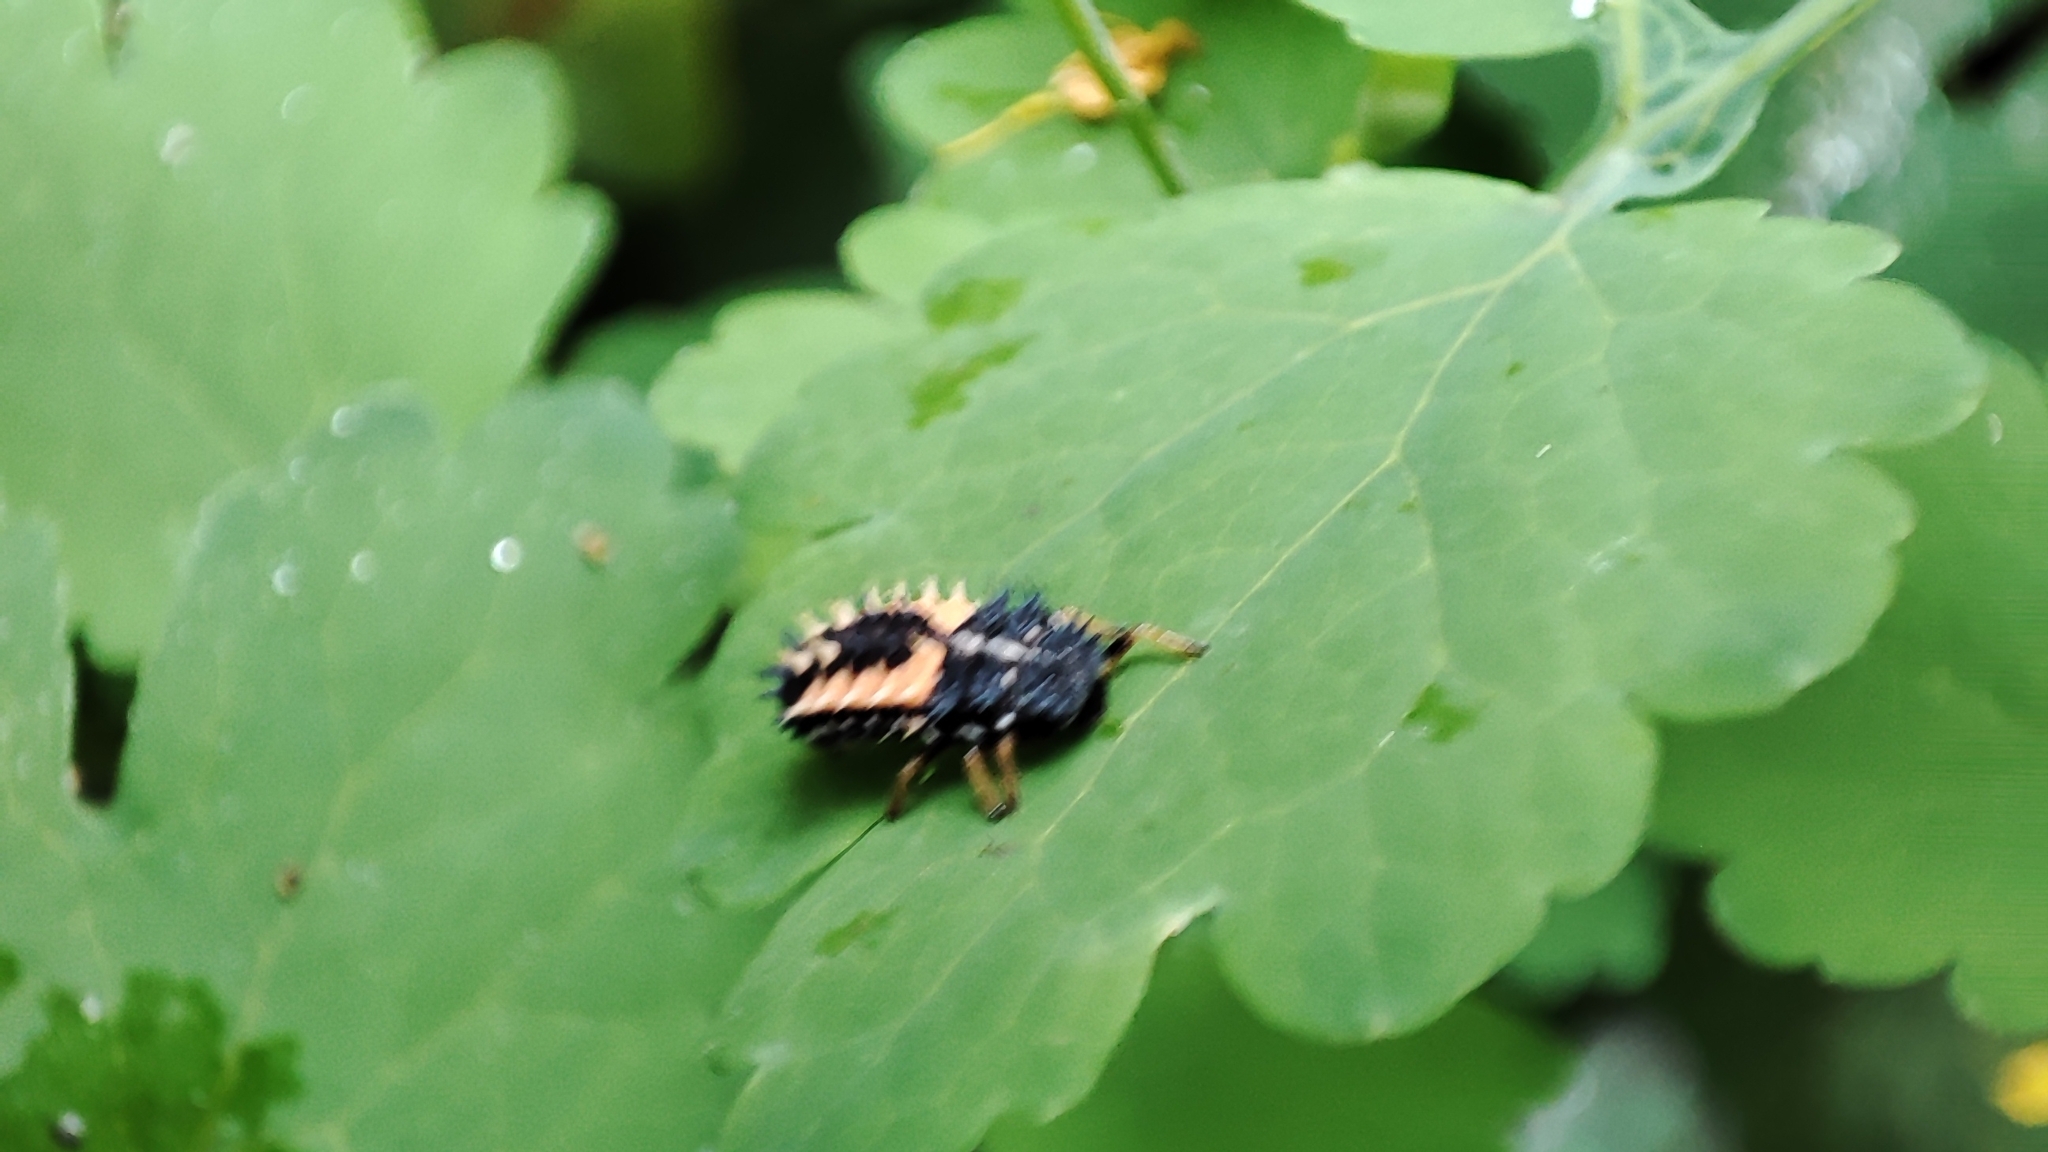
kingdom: Animalia
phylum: Arthropoda
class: Insecta
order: Coleoptera
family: Coccinellidae
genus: Harmonia
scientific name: Harmonia axyridis
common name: Harlequin ladybird
